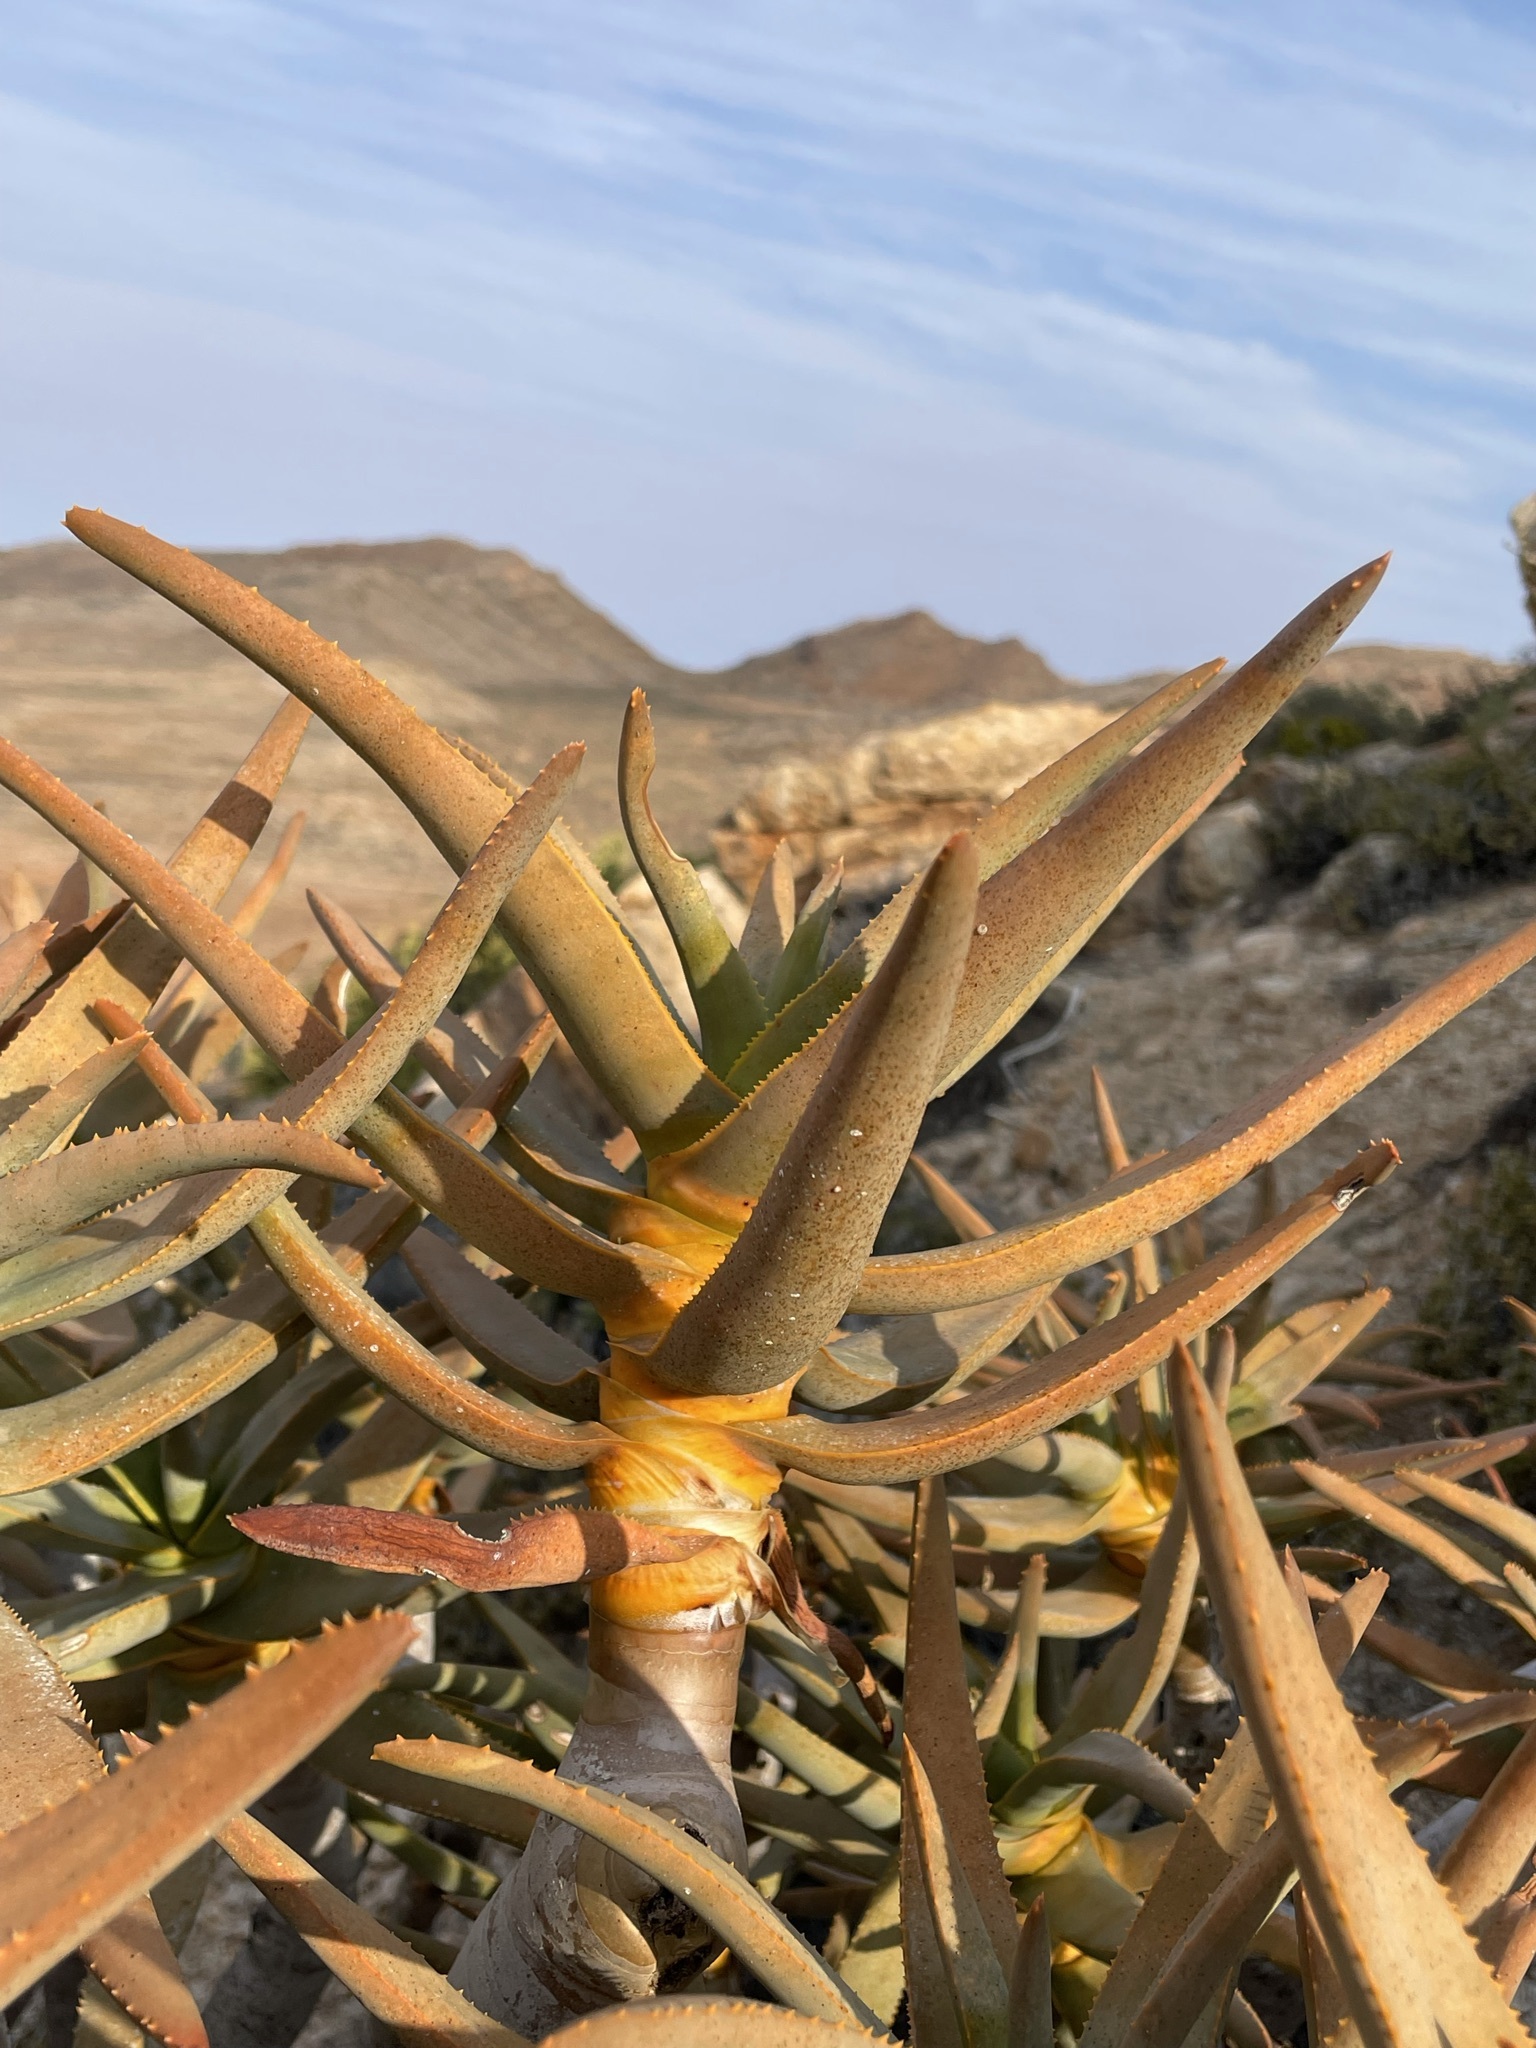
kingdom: Plantae
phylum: Tracheophyta
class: Liliopsida
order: Asparagales
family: Asphodelaceae
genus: Aloidendron
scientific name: Aloidendron dichotomum
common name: Quiver tree
